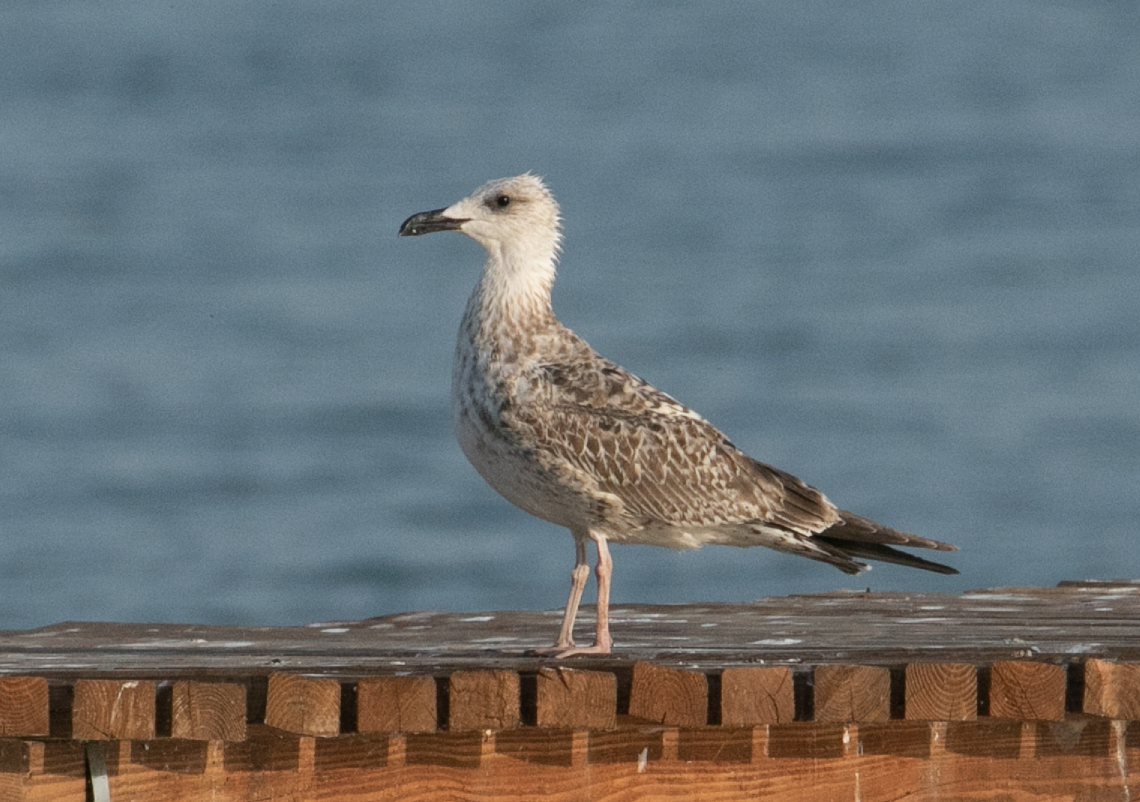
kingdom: Animalia
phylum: Chordata
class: Aves
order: Charadriiformes
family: Laridae
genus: Larus
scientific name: Larus michahellis
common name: Yellow-legged gull
